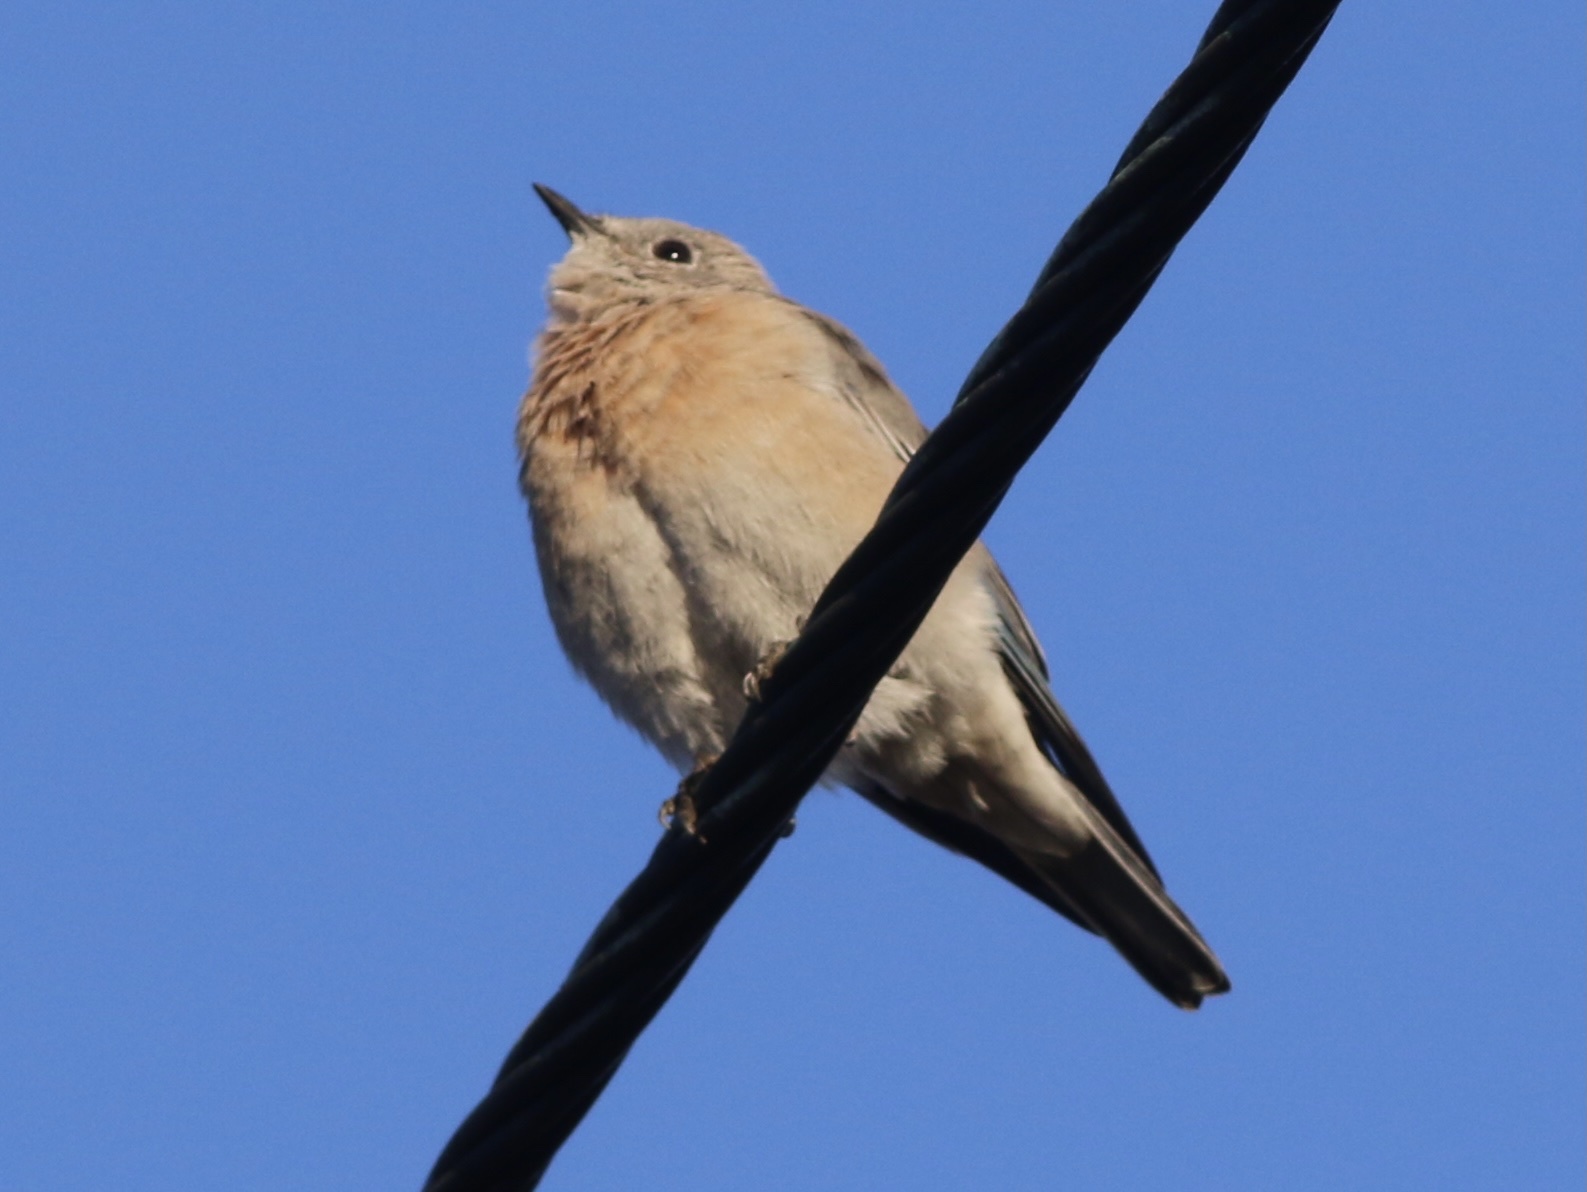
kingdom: Animalia
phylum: Chordata
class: Aves
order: Passeriformes
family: Turdidae
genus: Sialia
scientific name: Sialia mexicana
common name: Western bluebird
